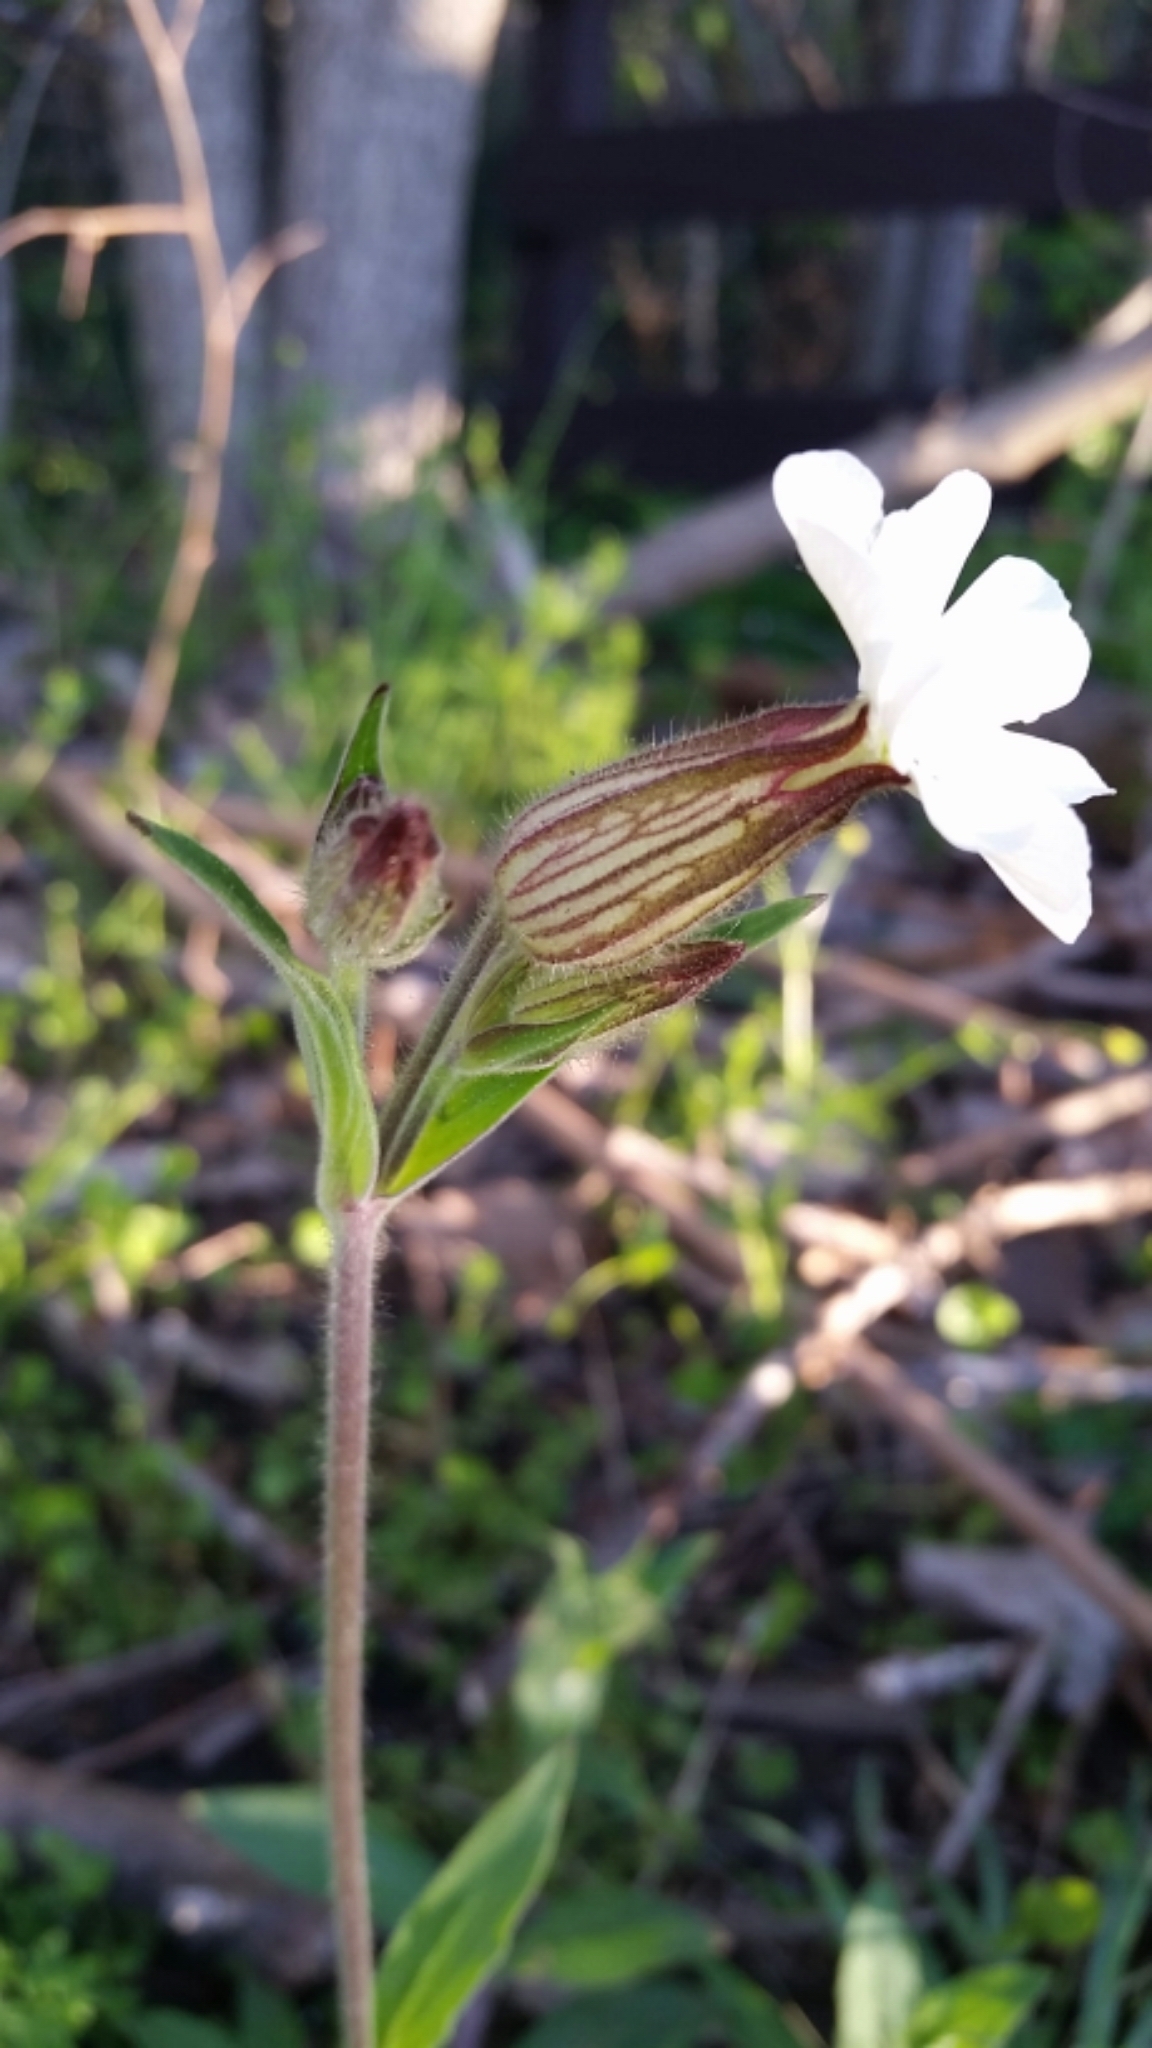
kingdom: Plantae
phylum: Tracheophyta
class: Magnoliopsida
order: Caryophyllales
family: Caryophyllaceae
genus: Silene
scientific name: Silene latifolia
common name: White campion
